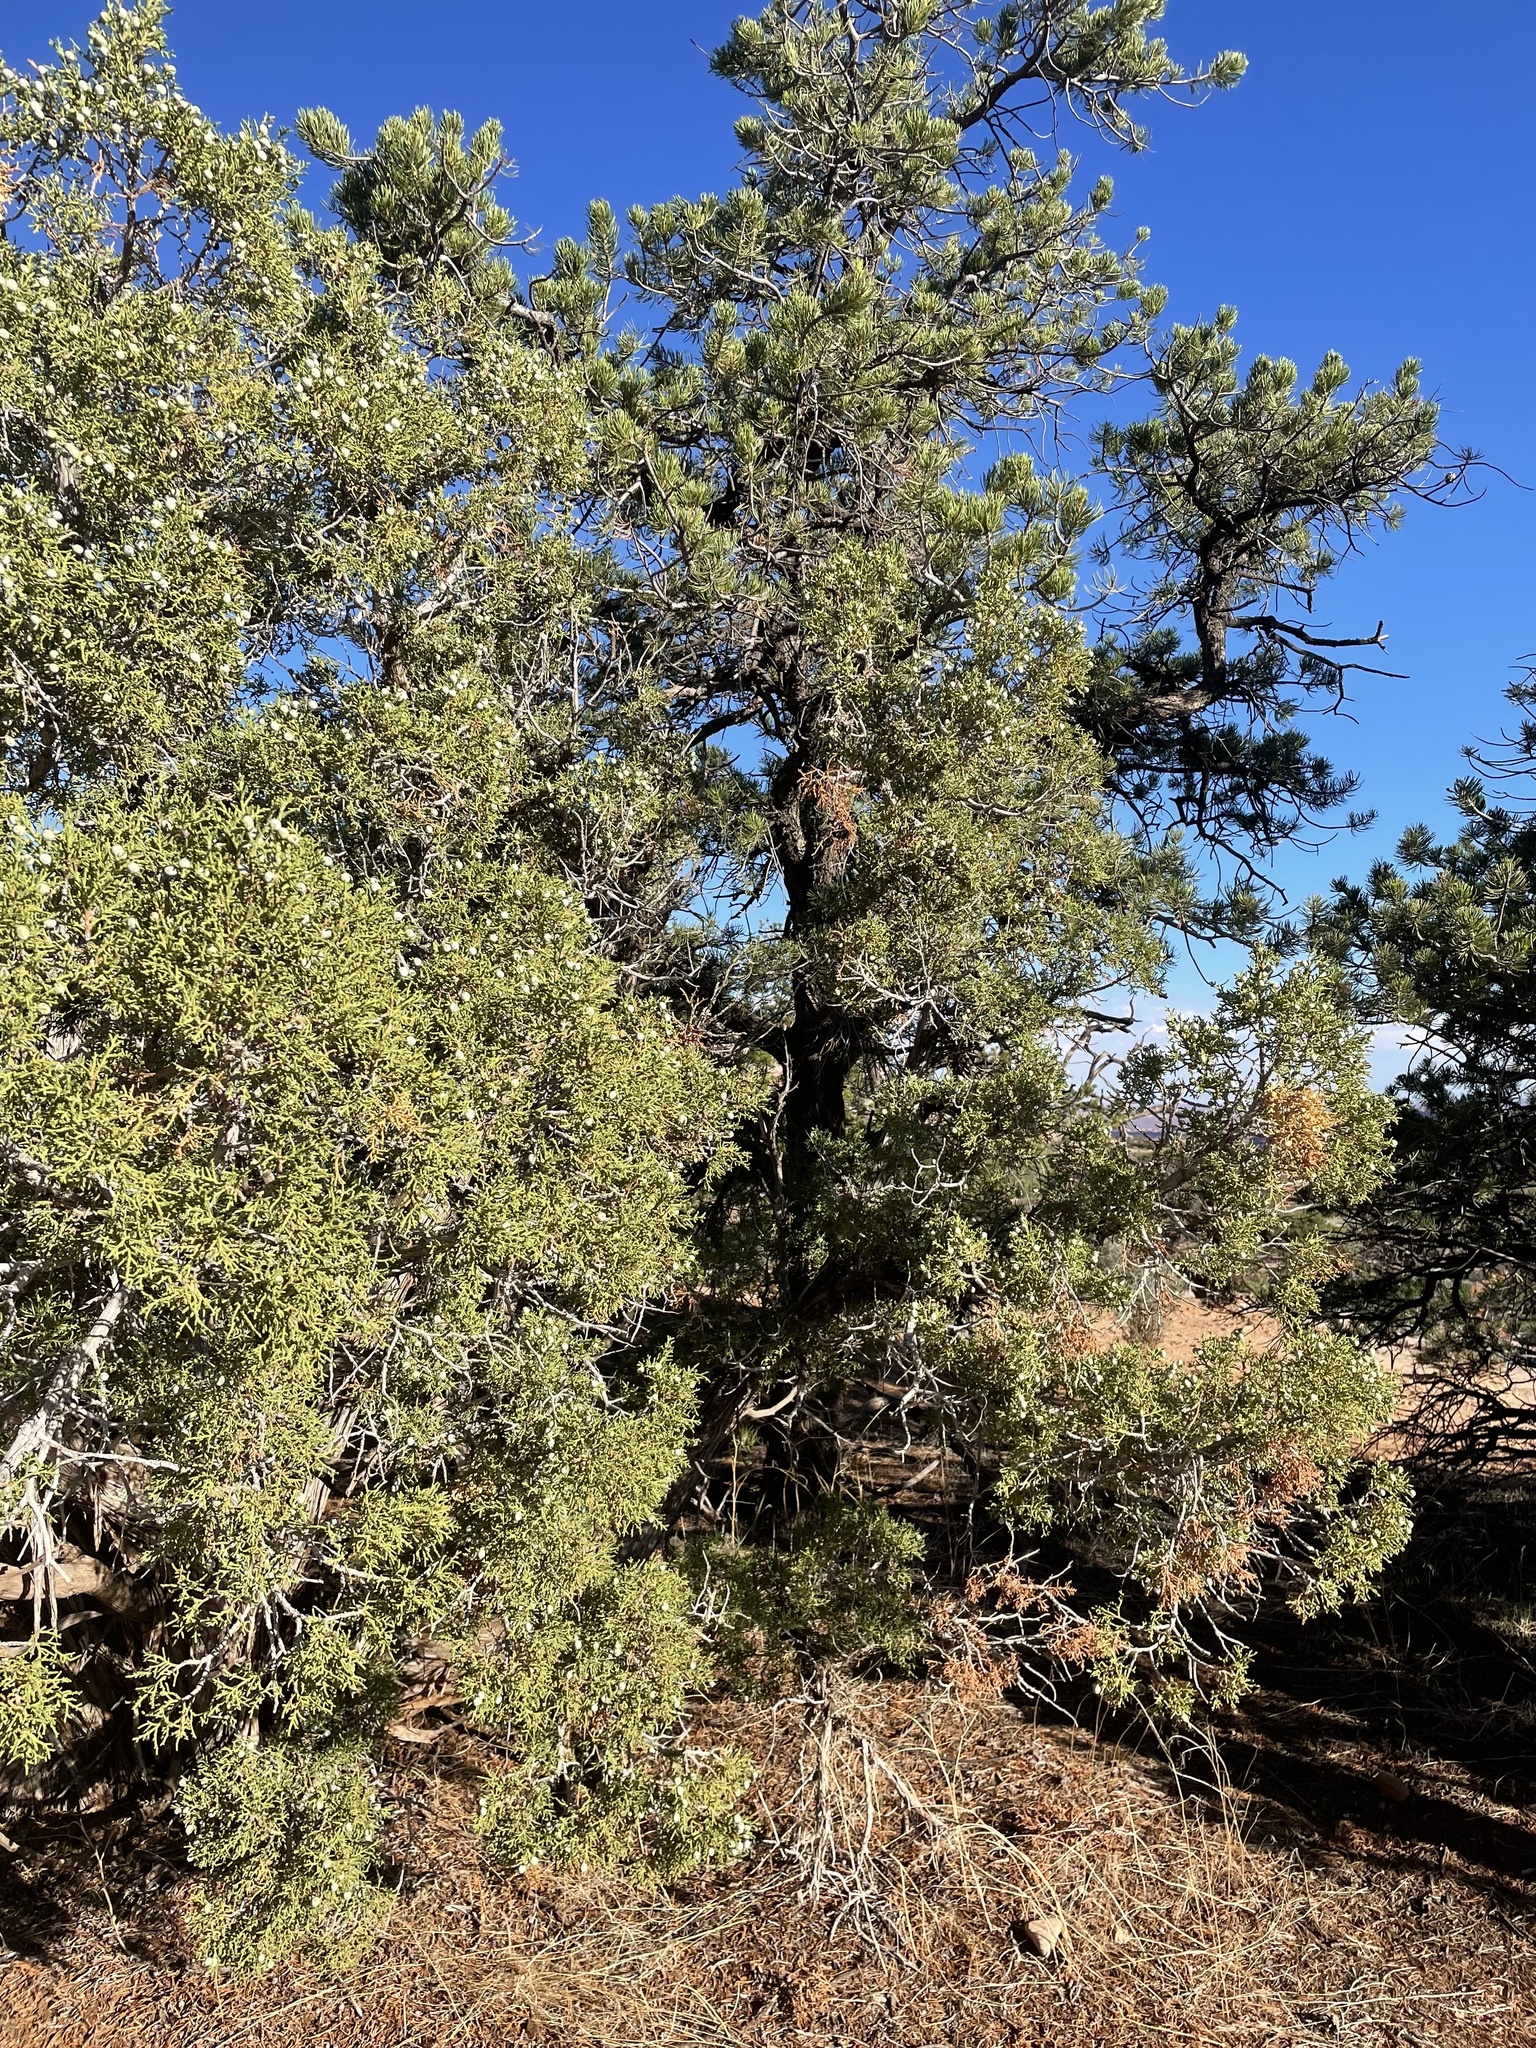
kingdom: Plantae
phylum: Tracheophyta
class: Pinopsida
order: Pinales
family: Pinaceae
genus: Pinus
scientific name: Pinus edulis
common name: Colorado pinyon
